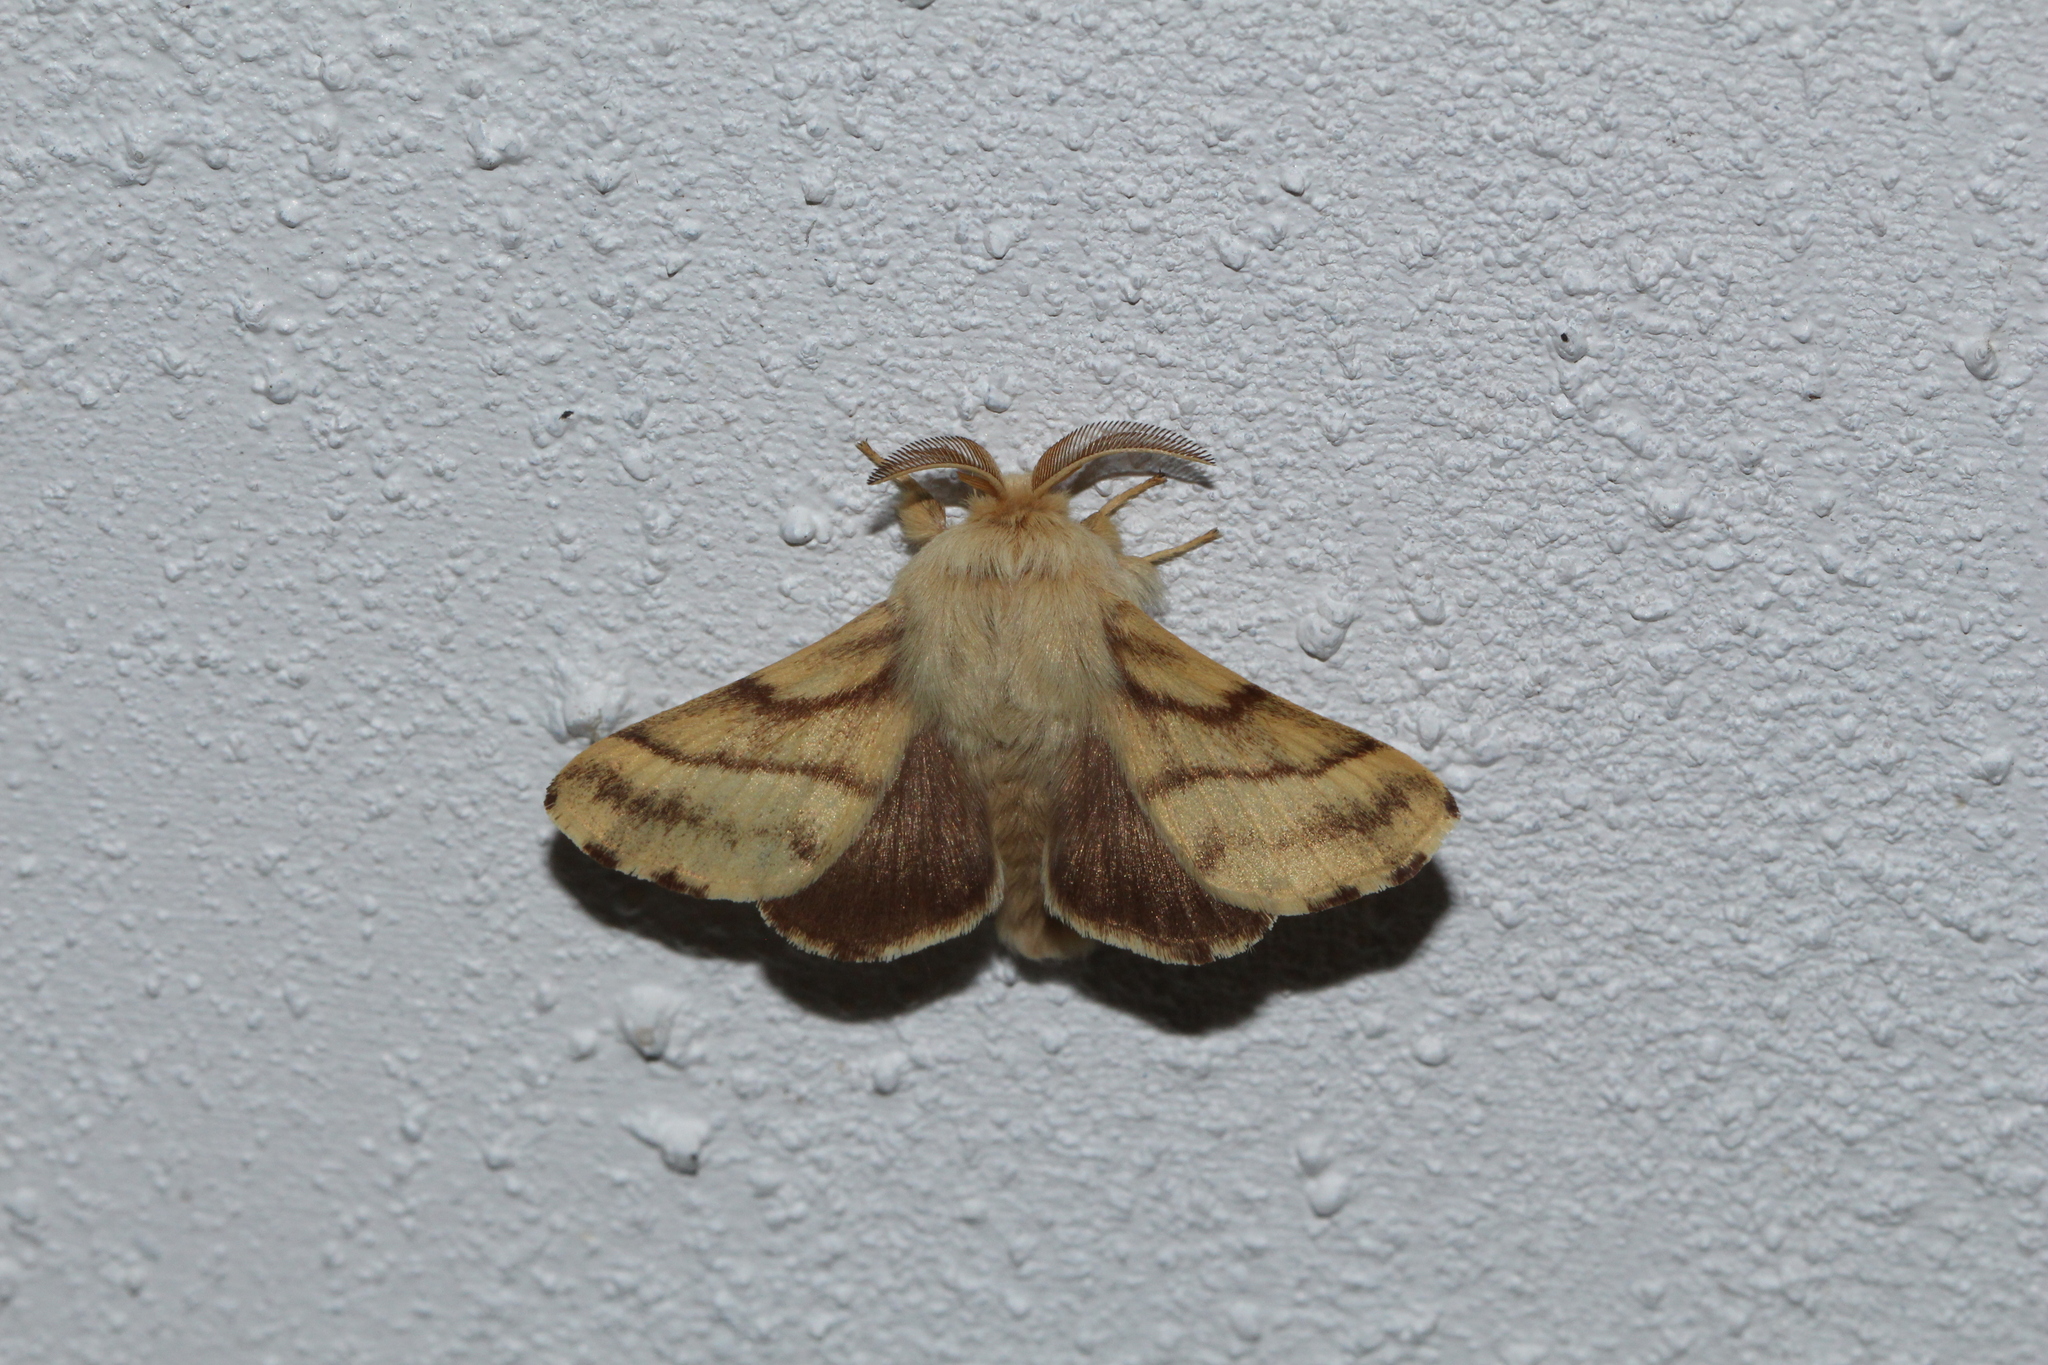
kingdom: Animalia
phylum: Arthropoda
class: Insecta
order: Lepidoptera
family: Lasiocampidae
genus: Malacosoma
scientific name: Malacosoma castrense
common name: Ground lackey
